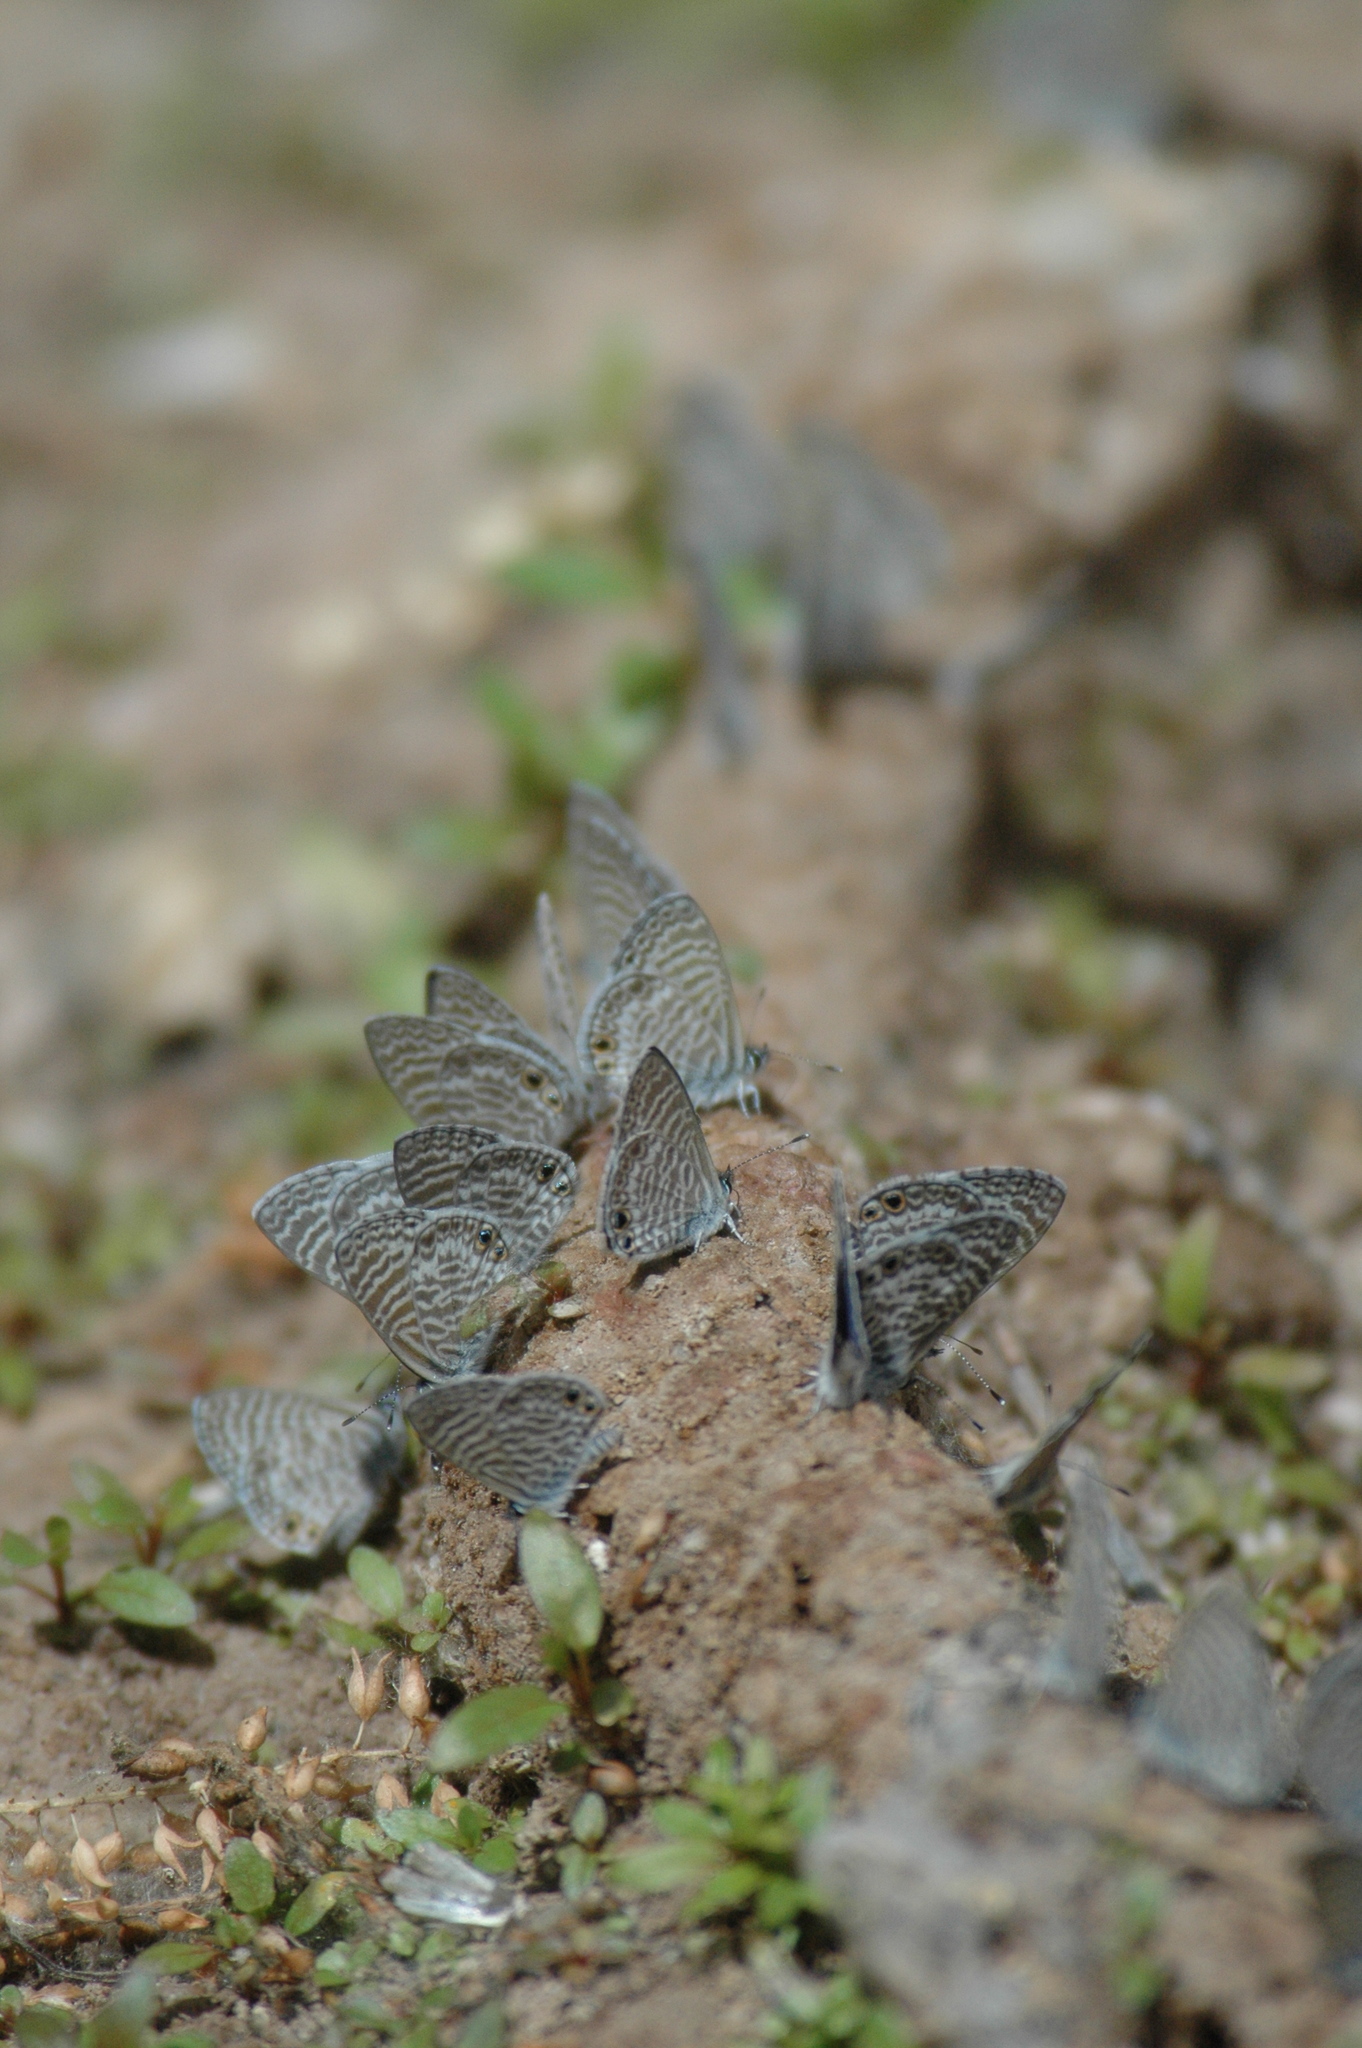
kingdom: Animalia
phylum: Arthropoda
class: Insecta
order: Lepidoptera
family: Lycaenidae
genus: Leptotes
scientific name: Leptotes marina
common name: Marine blue
